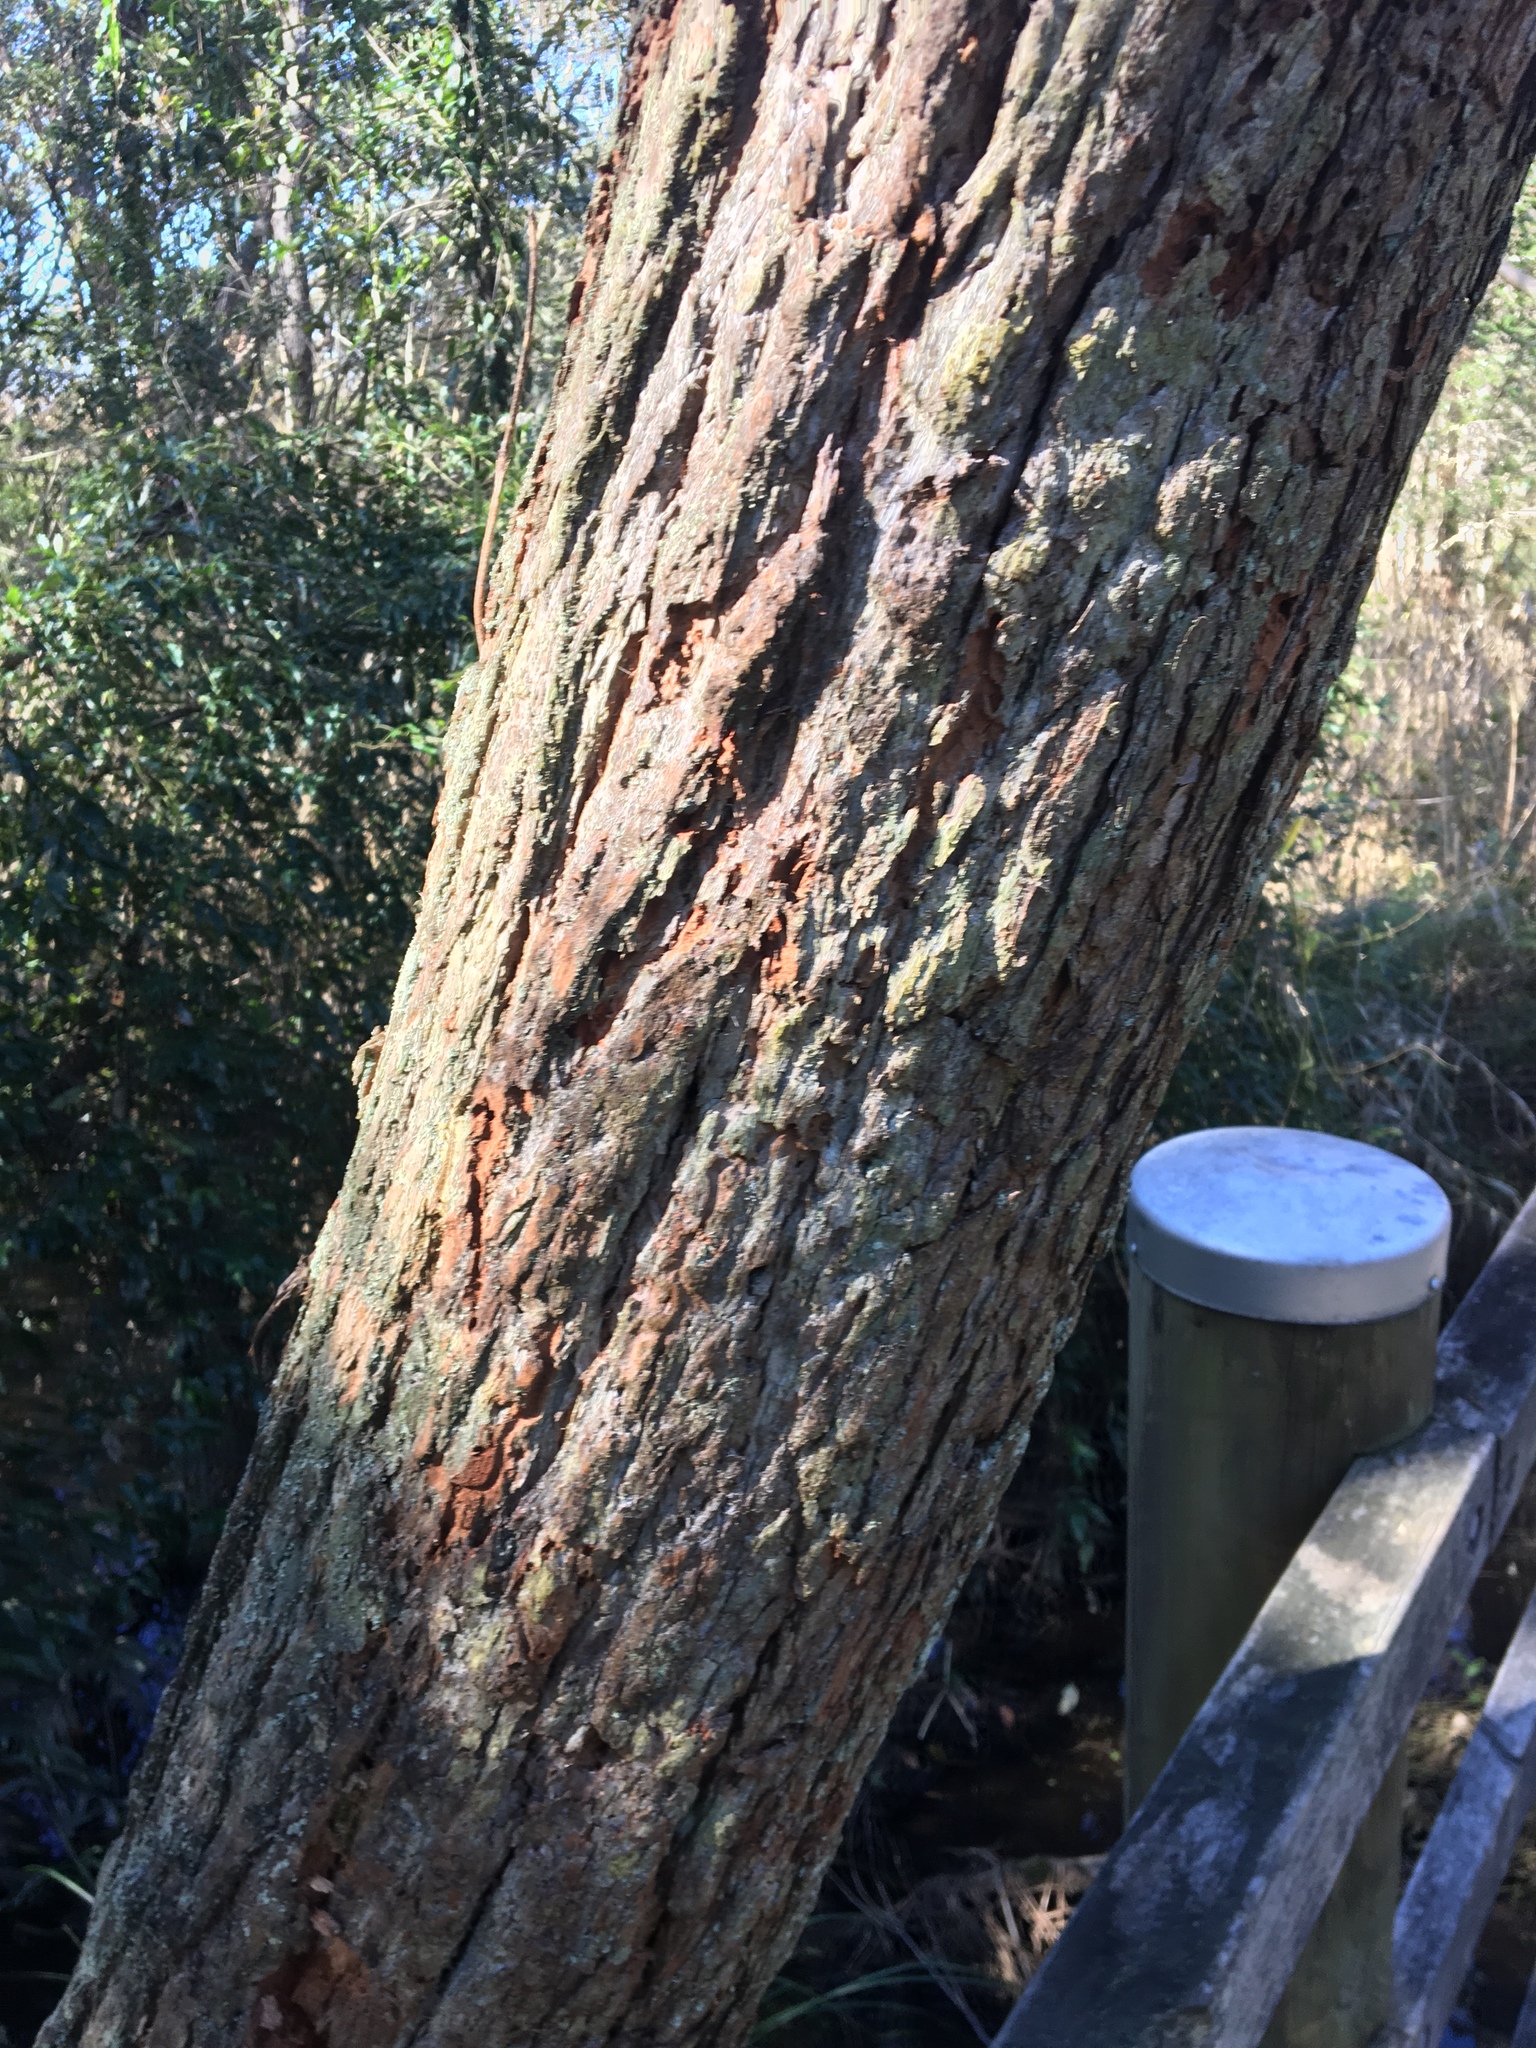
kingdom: Plantae
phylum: Tracheophyta
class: Magnoliopsida
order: Myrtales
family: Myrtaceae
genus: Eucalyptus
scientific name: Eucalyptus robusta
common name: Swampmahogany
